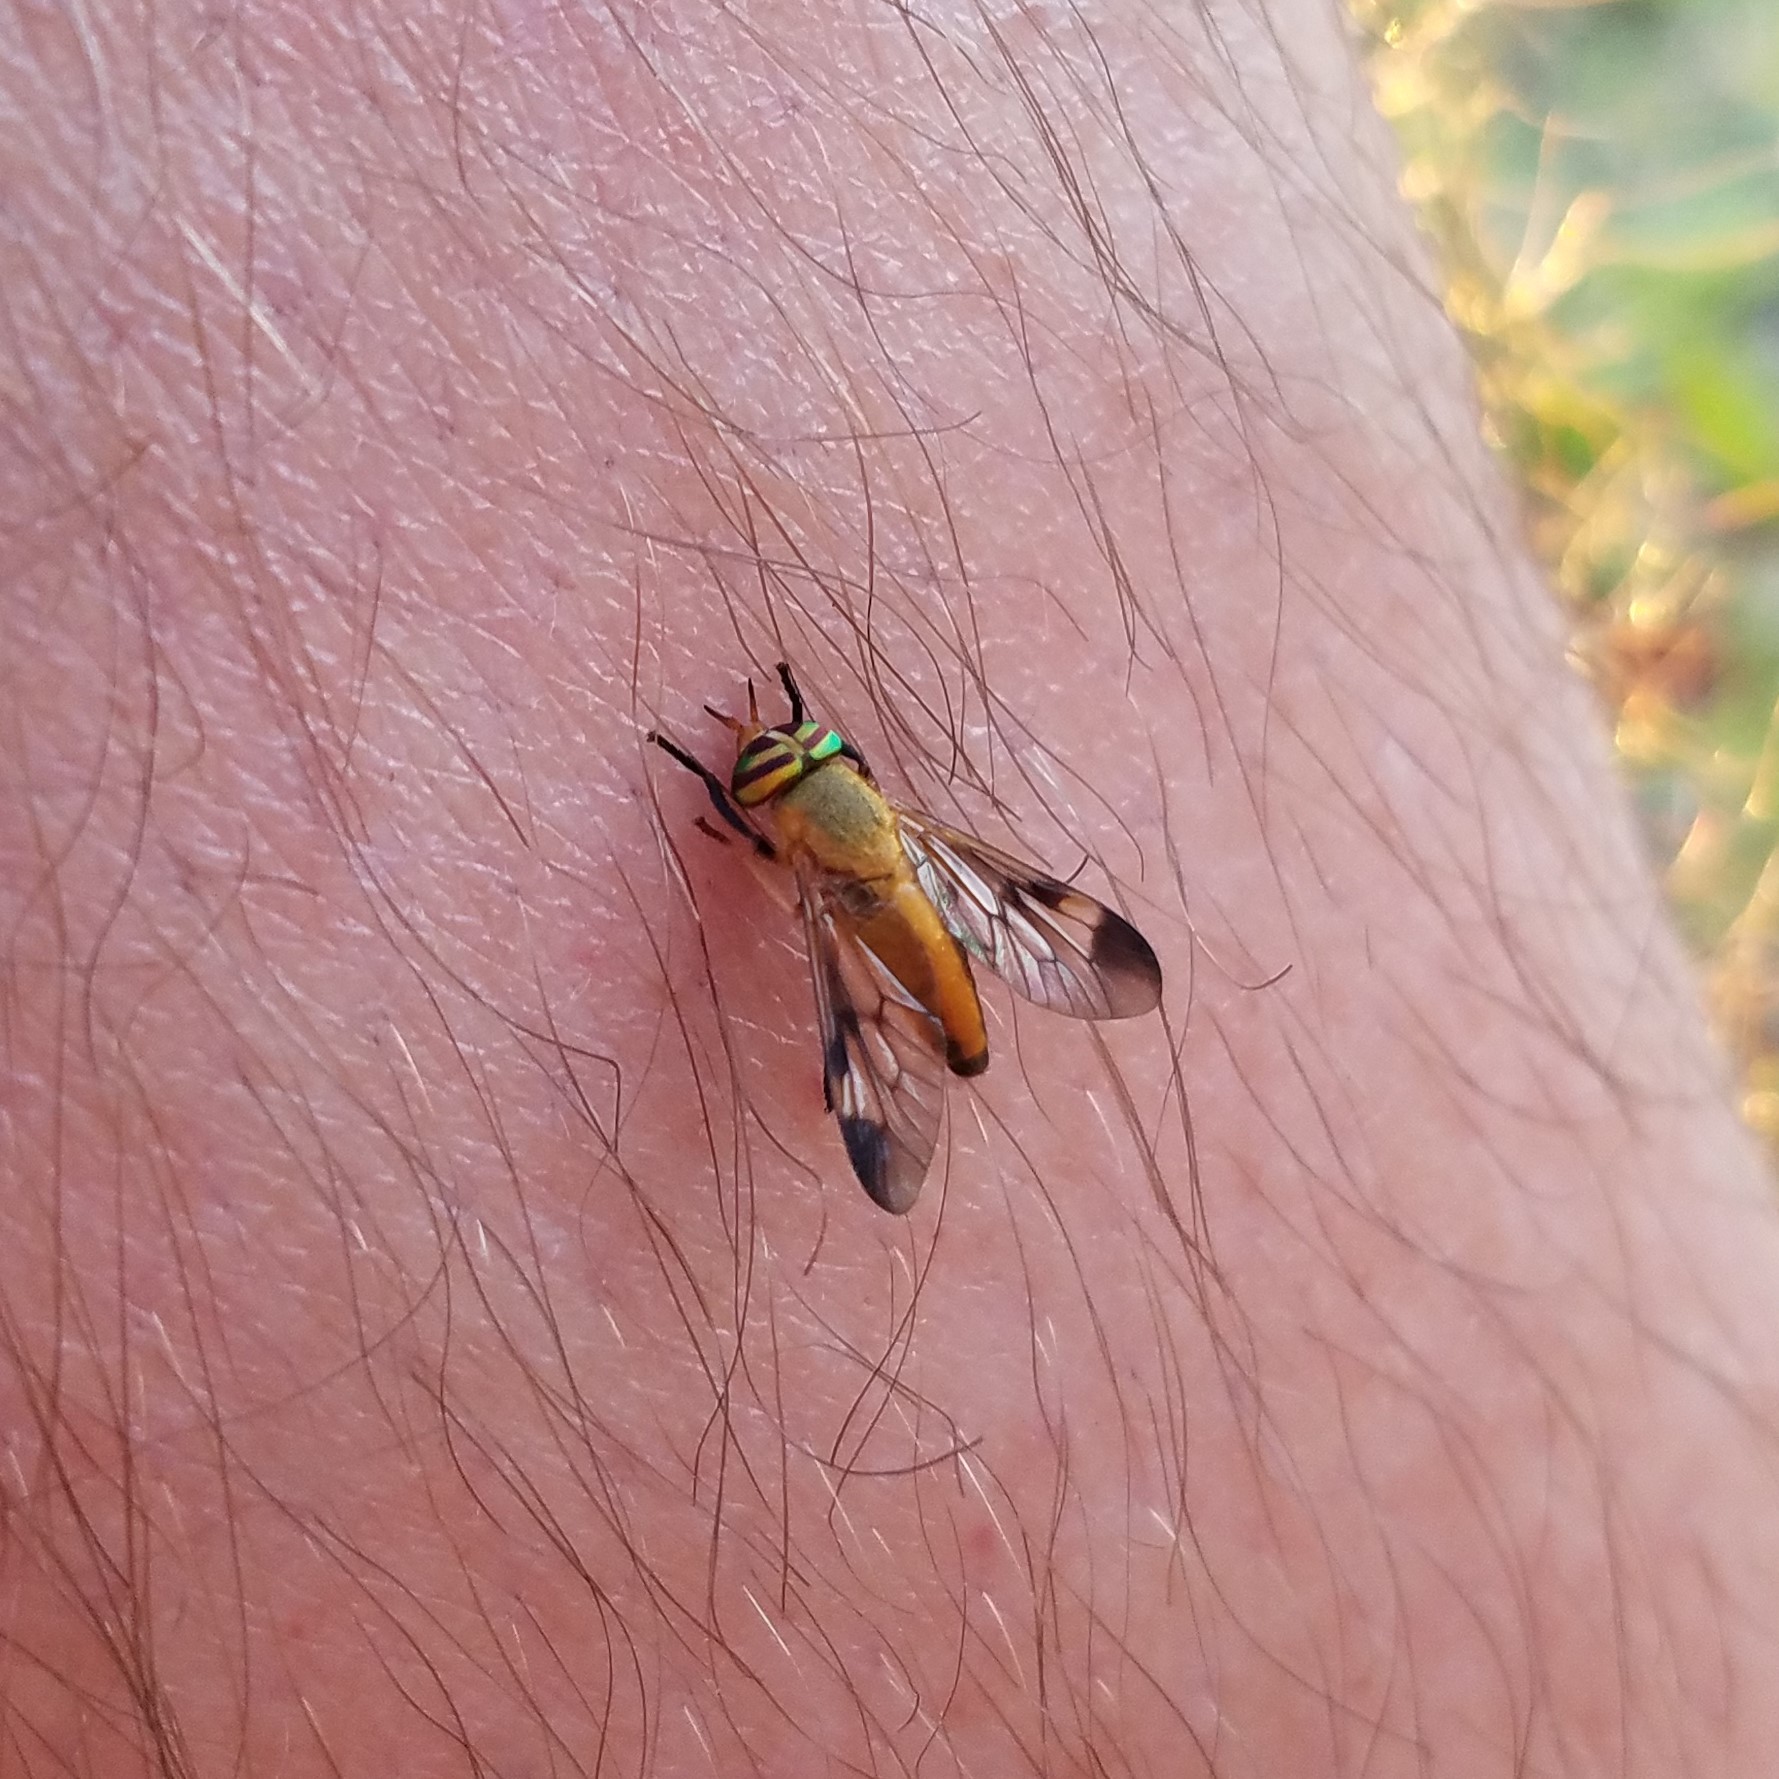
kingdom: Animalia
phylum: Arthropoda
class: Insecta
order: Diptera
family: Tabanidae
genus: Diachlorus
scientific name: Diachlorus ferrugatus
